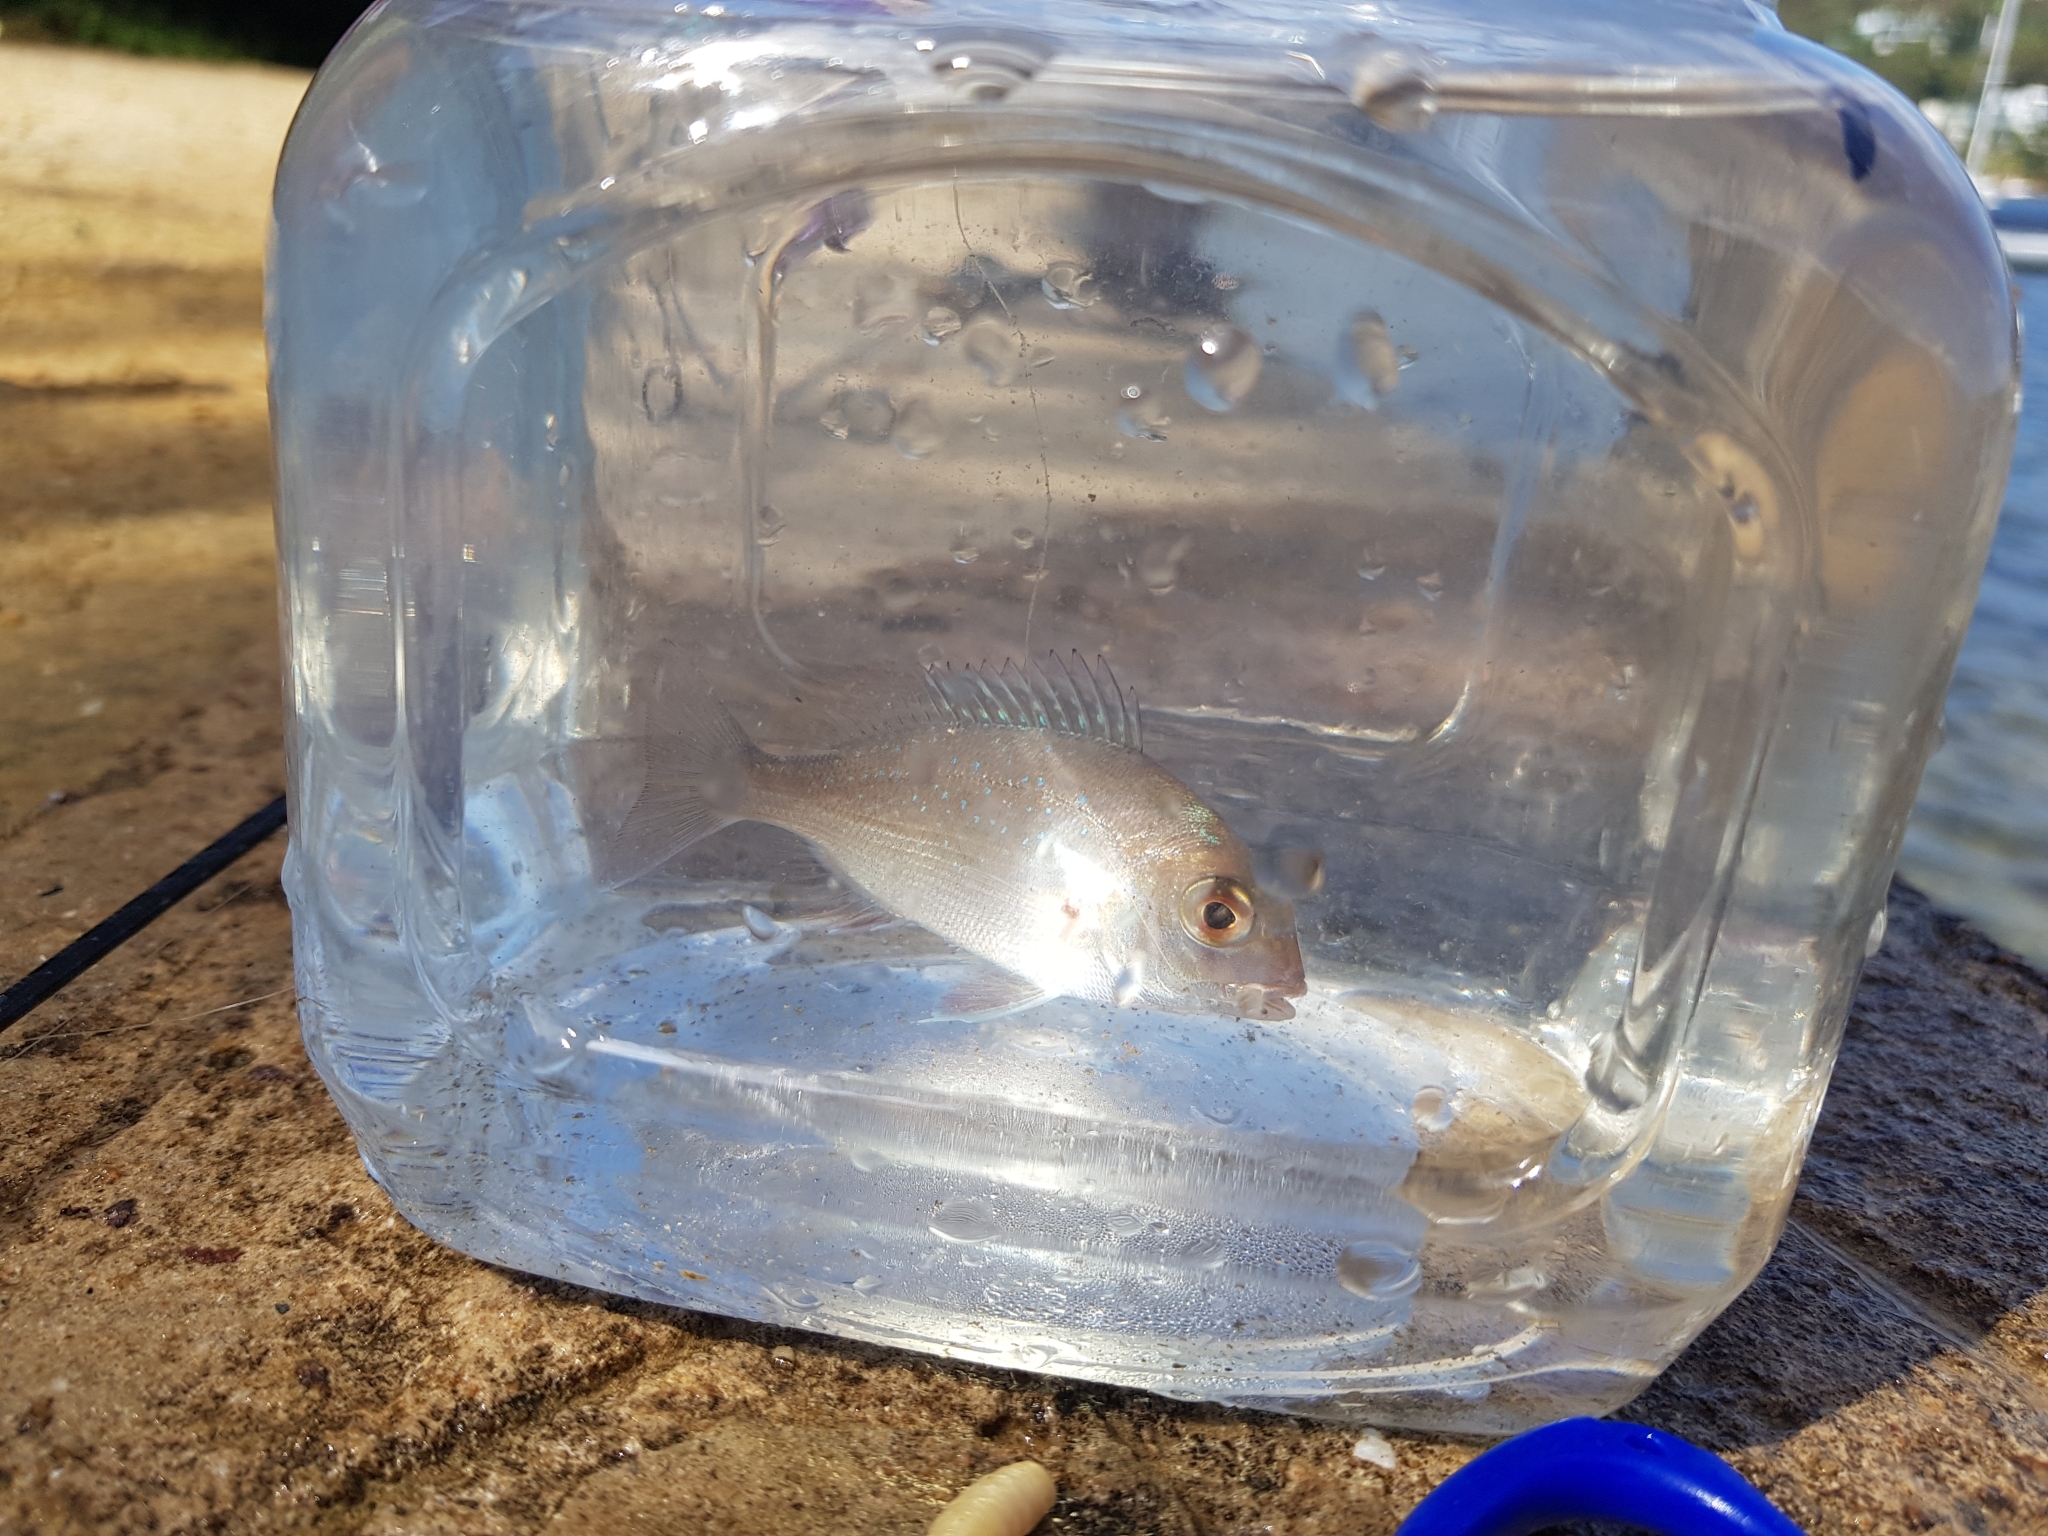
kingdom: Animalia
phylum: Chordata
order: Perciformes
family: Sparidae
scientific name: Sparidae
